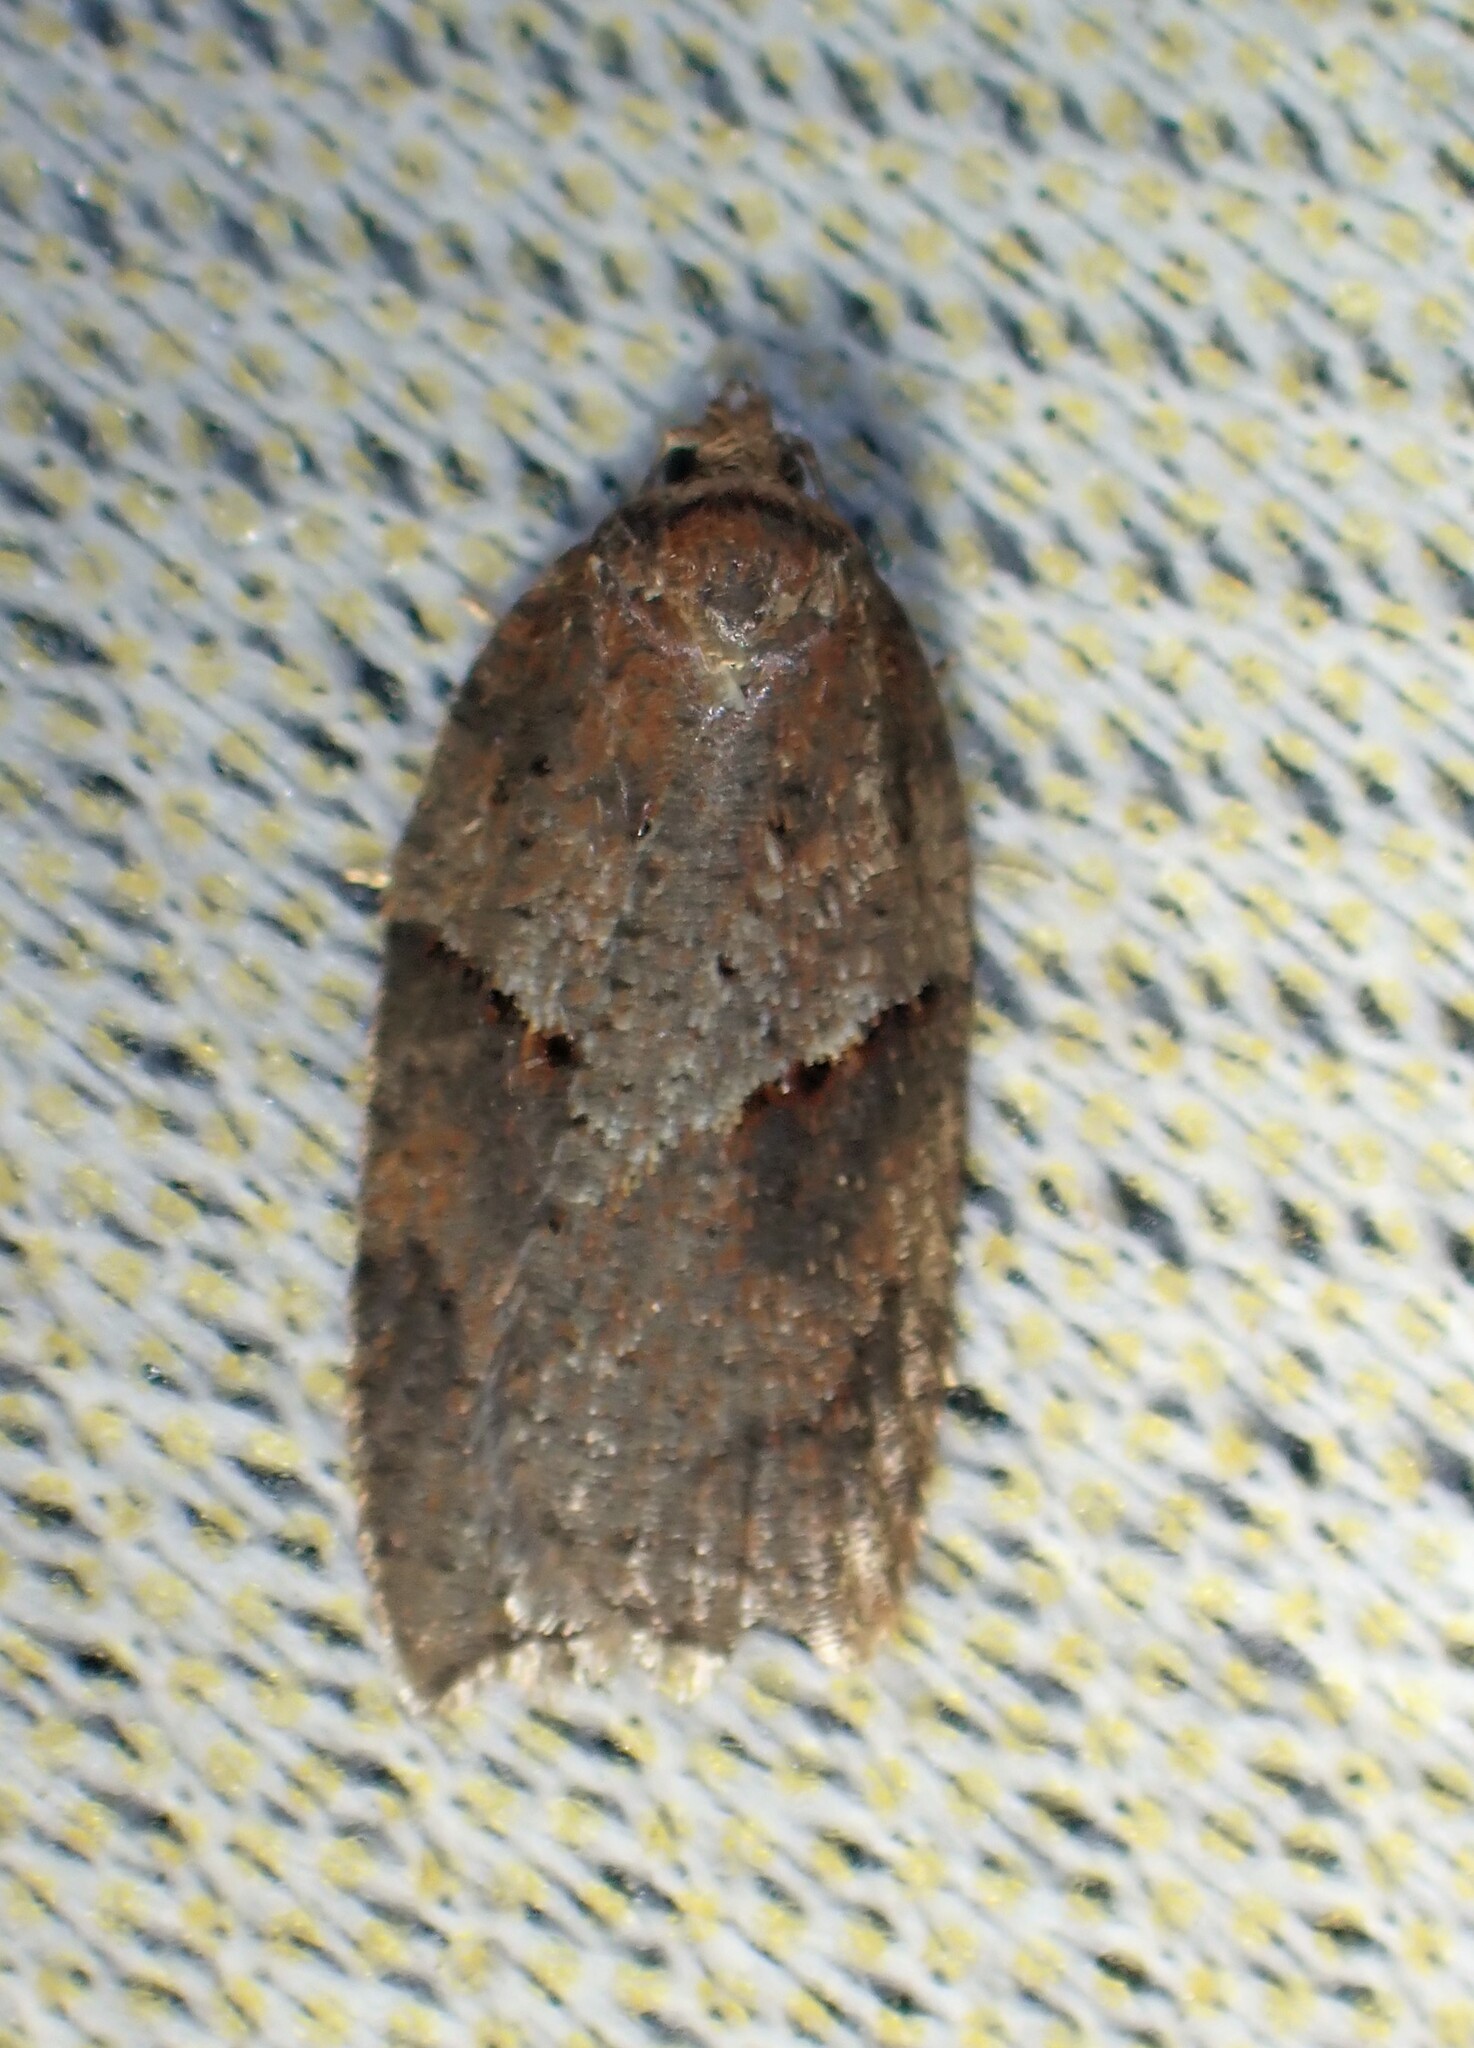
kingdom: Animalia
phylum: Arthropoda
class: Insecta
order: Lepidoptera
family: Tortricidae
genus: Acleris
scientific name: Acleris maccana
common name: Marbled button
